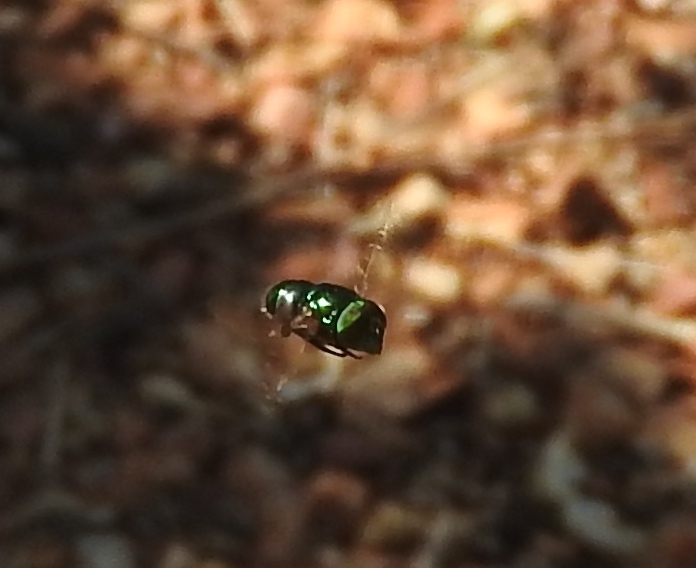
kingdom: Animalia
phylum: Arthropoda
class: Insecta
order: Diptera
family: Syrphidae
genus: Ornidia
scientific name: Ornidia obesa
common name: Syrphid fly
